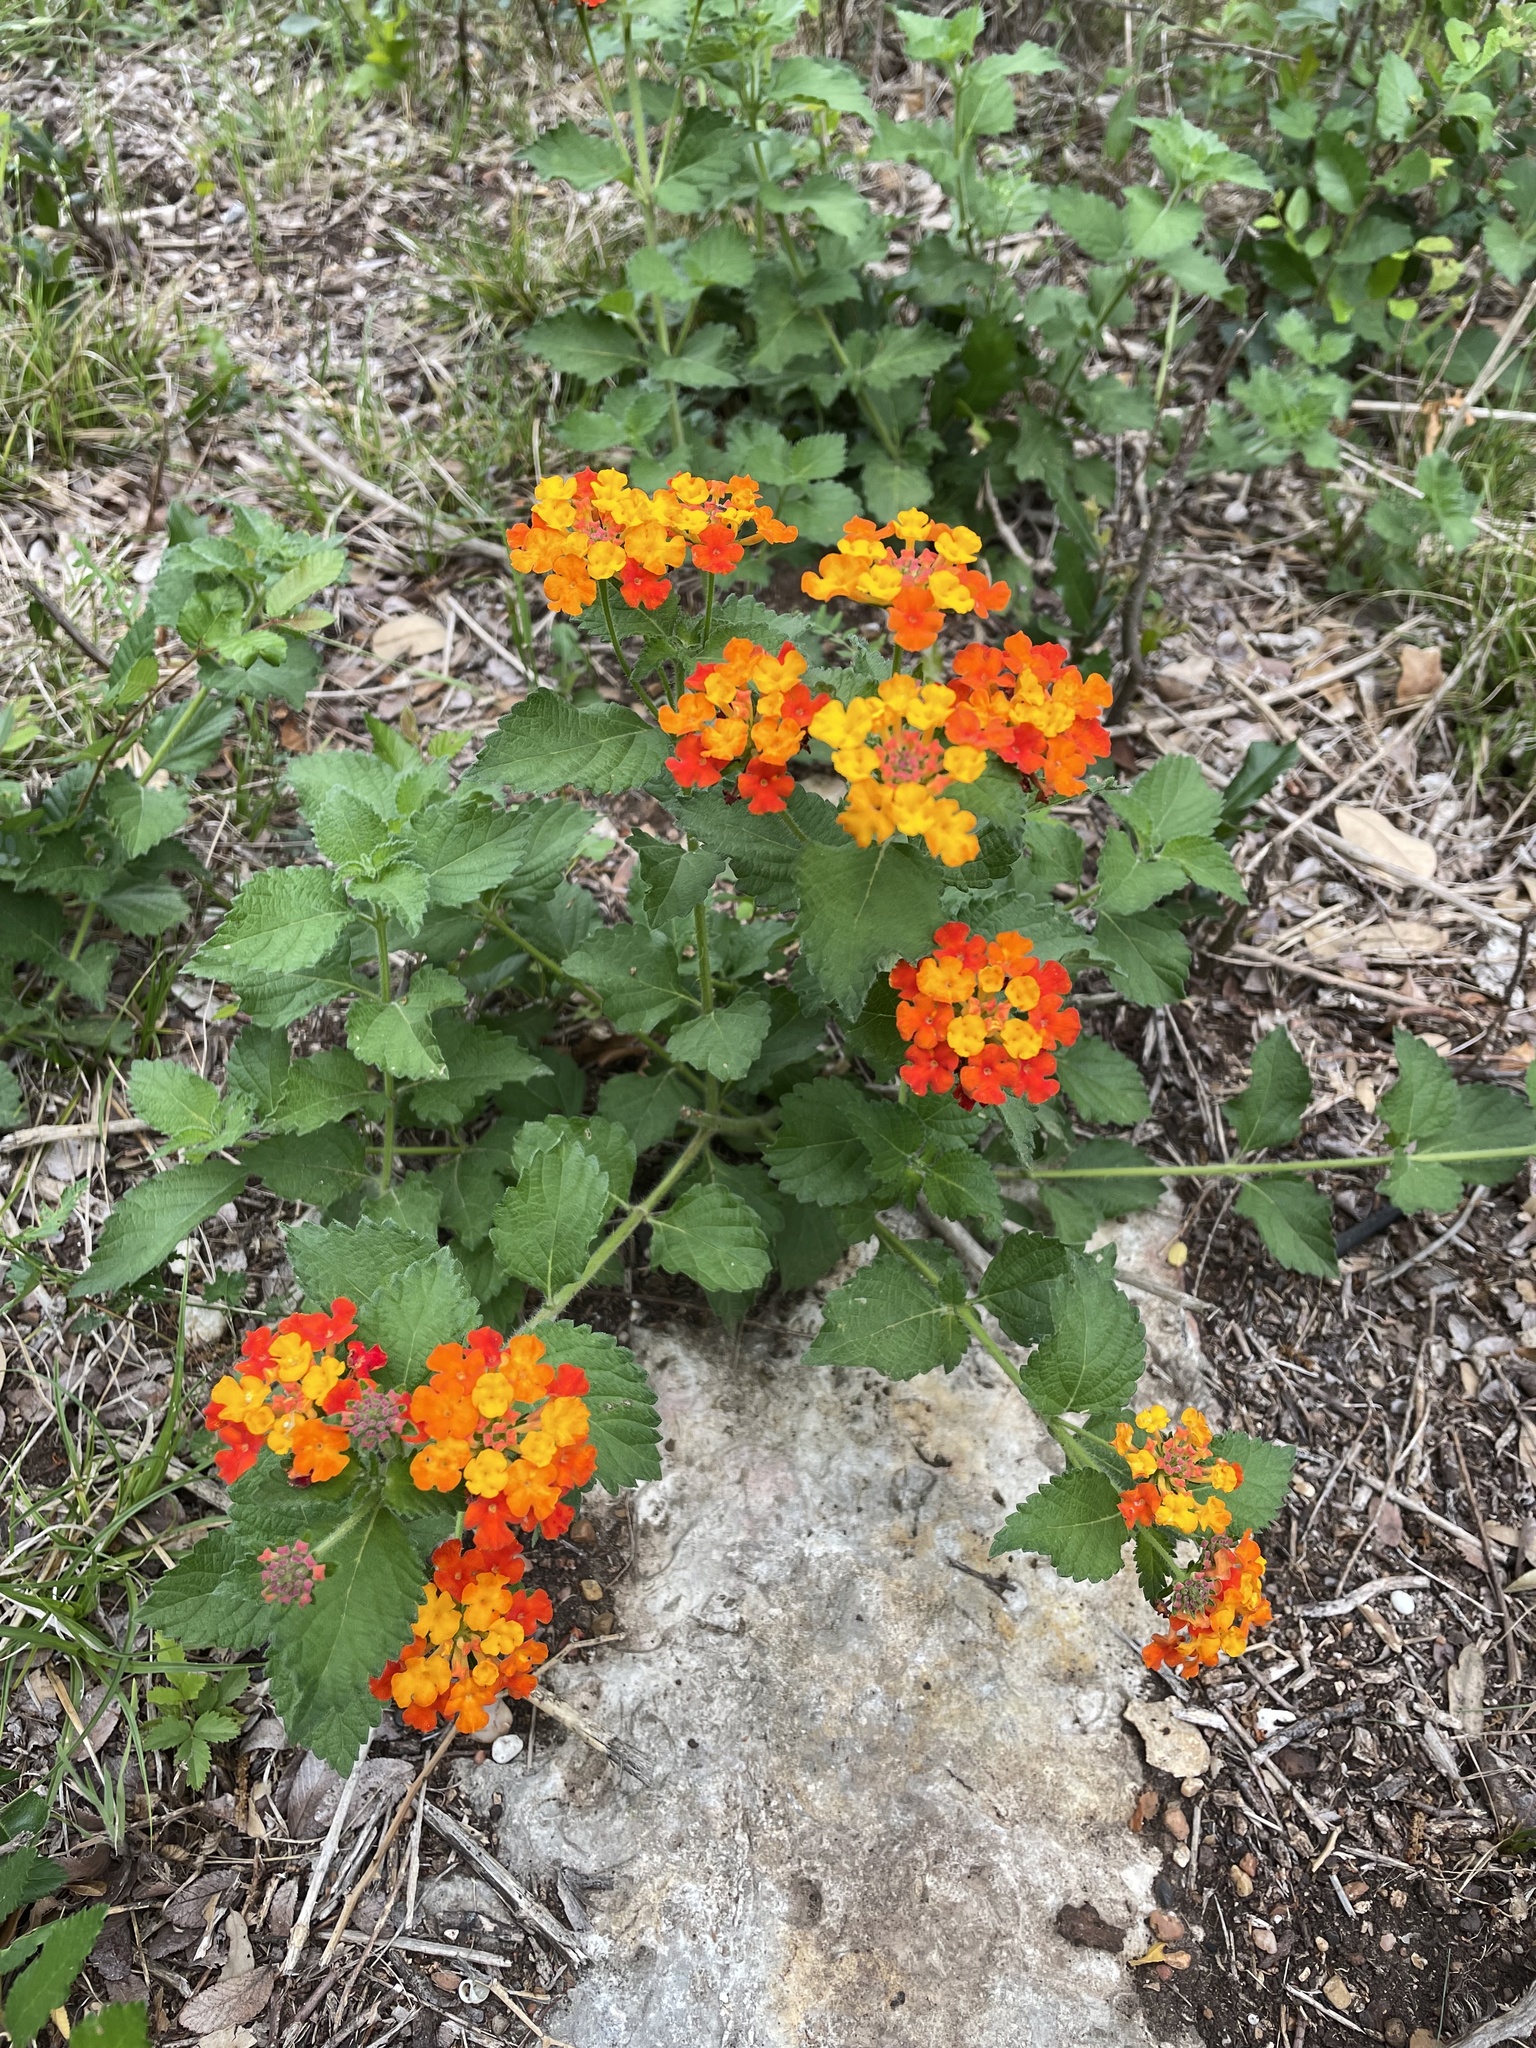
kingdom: Plantae
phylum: Tracheophyta
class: Magnoliopsida
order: Lamiales
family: Verbenaceae
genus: Lantana
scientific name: Lantana urticoides
